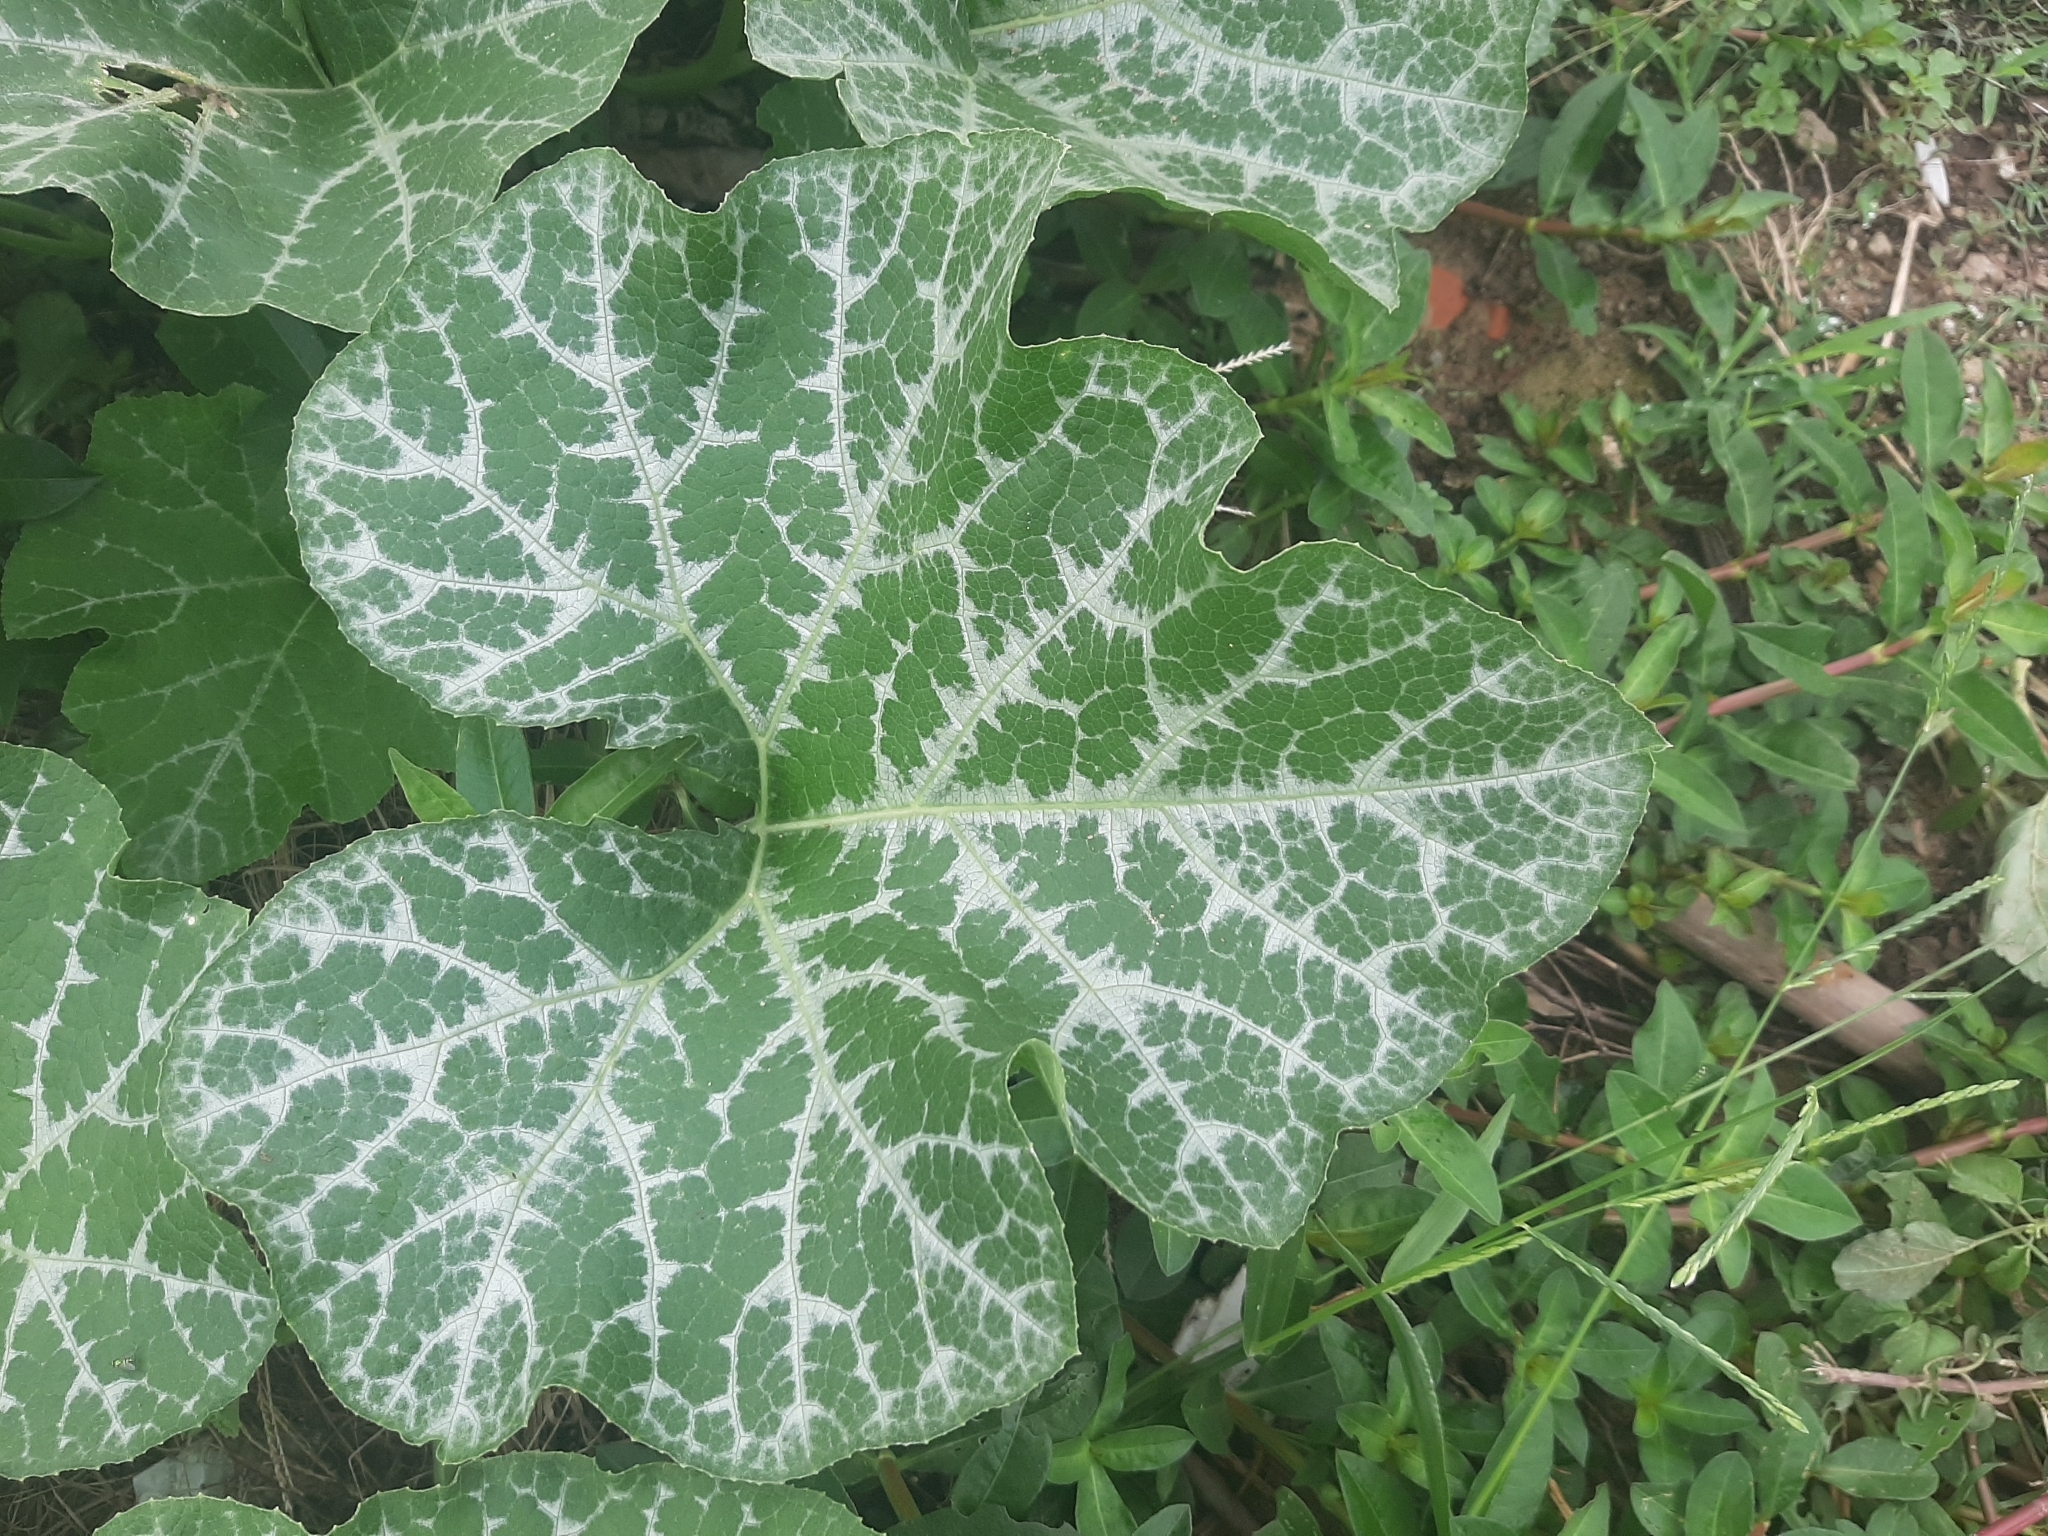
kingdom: Plantae
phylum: Tracheophyta
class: Magnoliopsida
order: Cucurbitales
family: Cucurbitaceae
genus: Cucurbita
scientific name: Cucurbita moschata
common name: Squash / pumpkin
